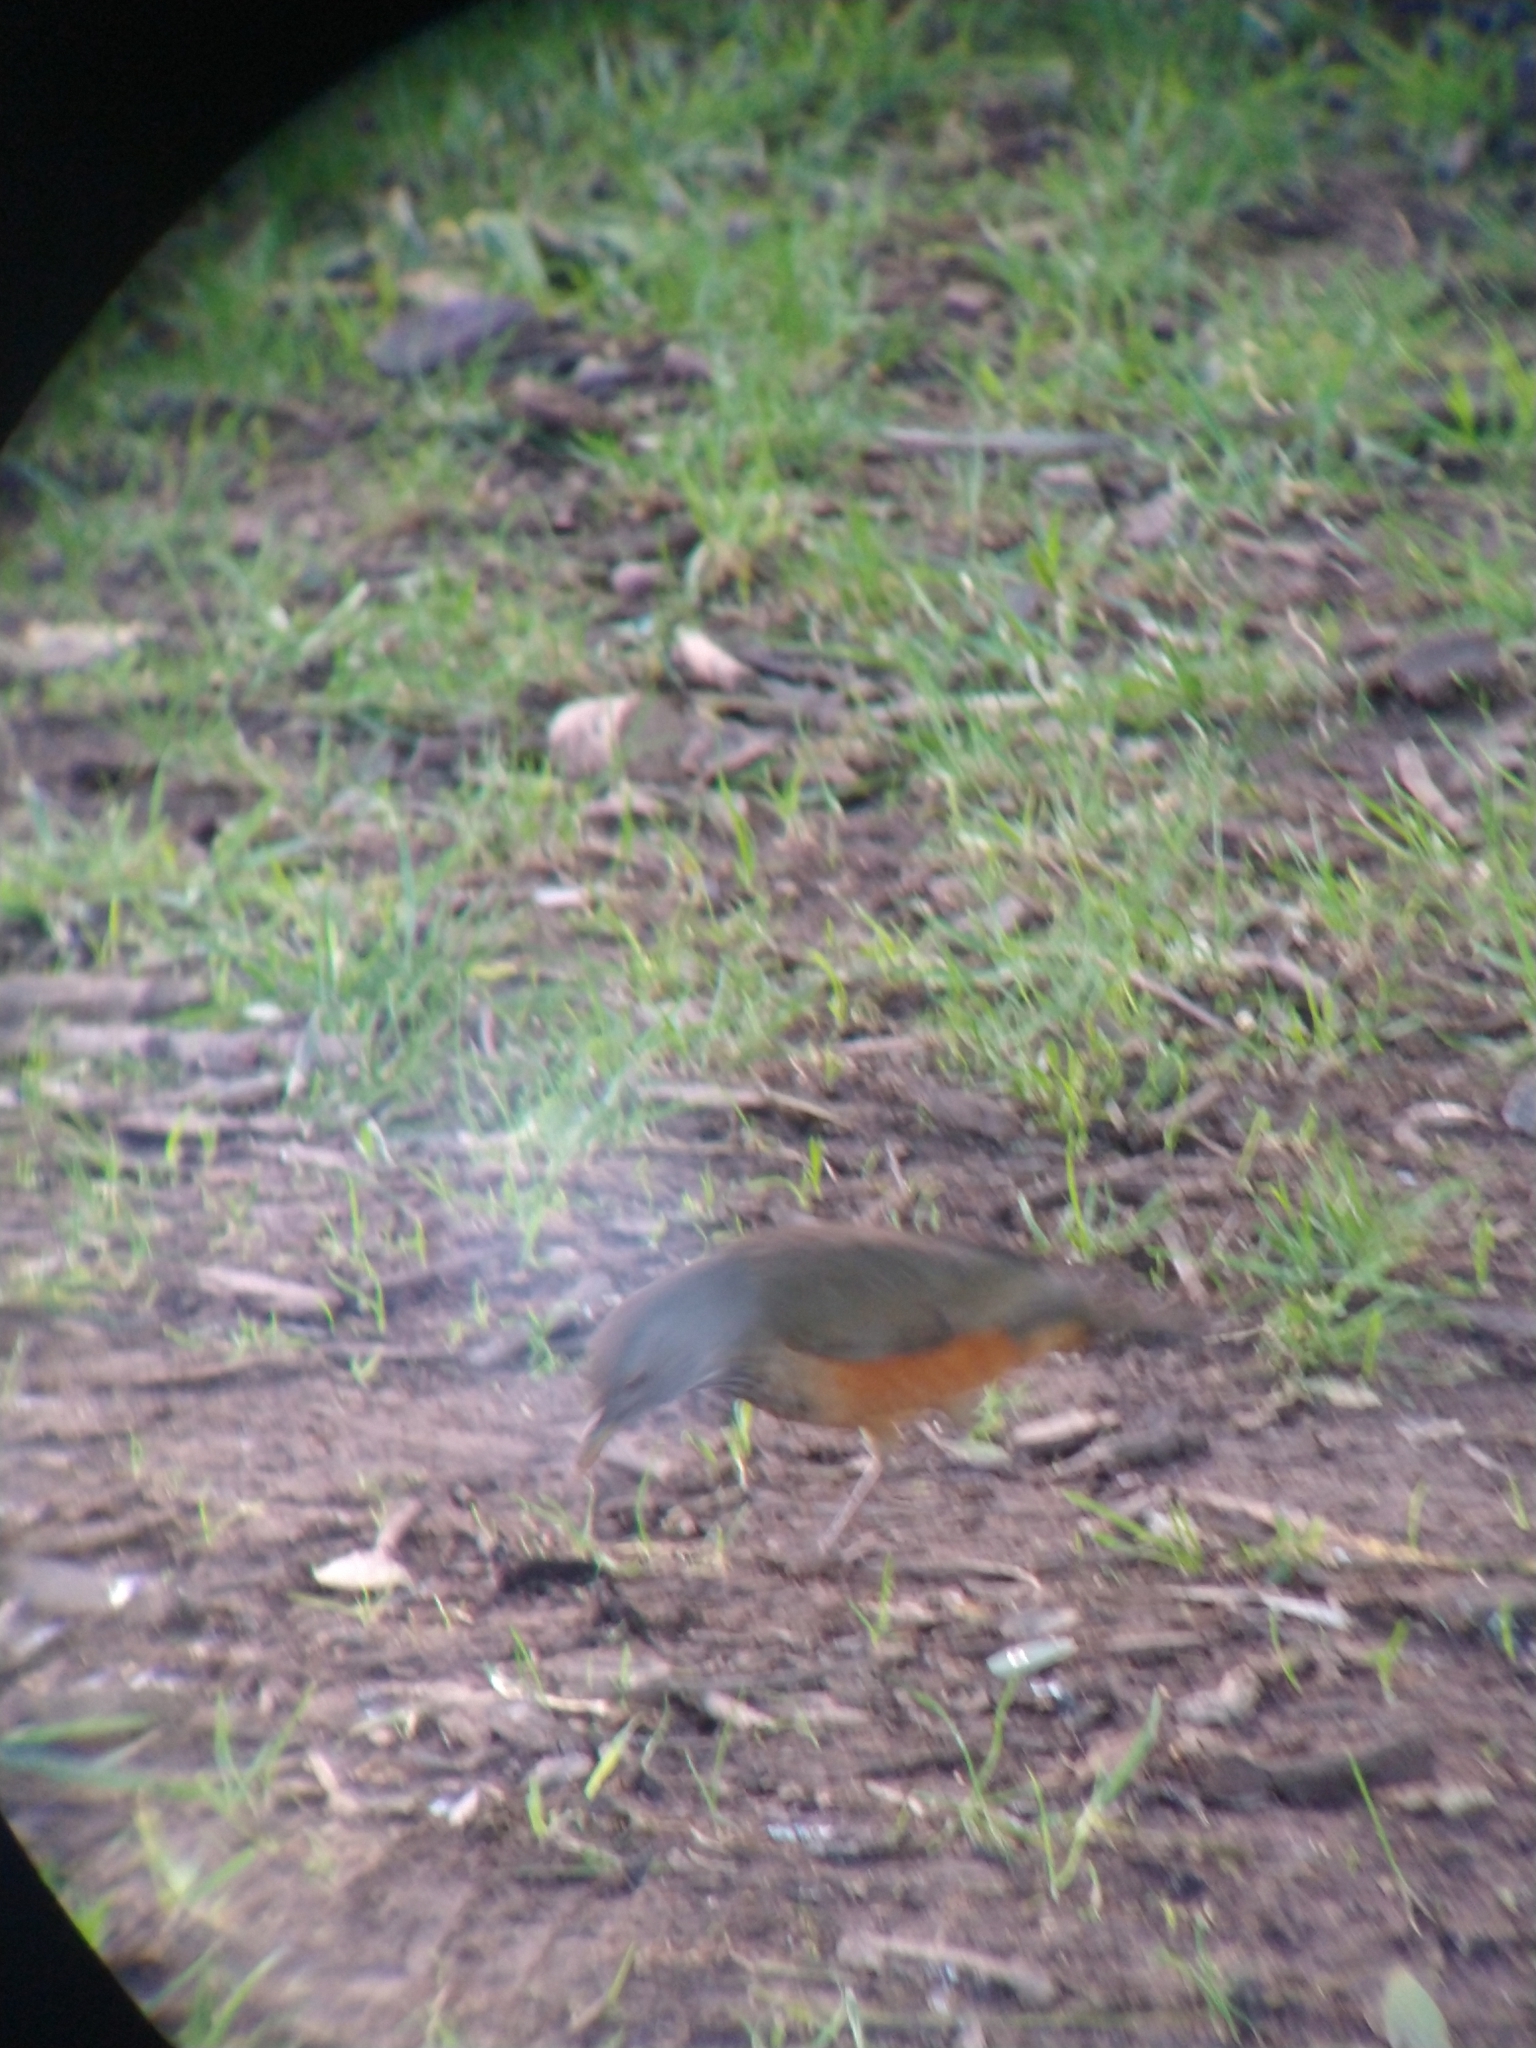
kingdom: Animalia
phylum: Chordata
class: Aves
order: Passeriformes
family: Turdidae
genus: Turdus
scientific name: Turdus rufiventris
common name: Rufous-bellied thrush
